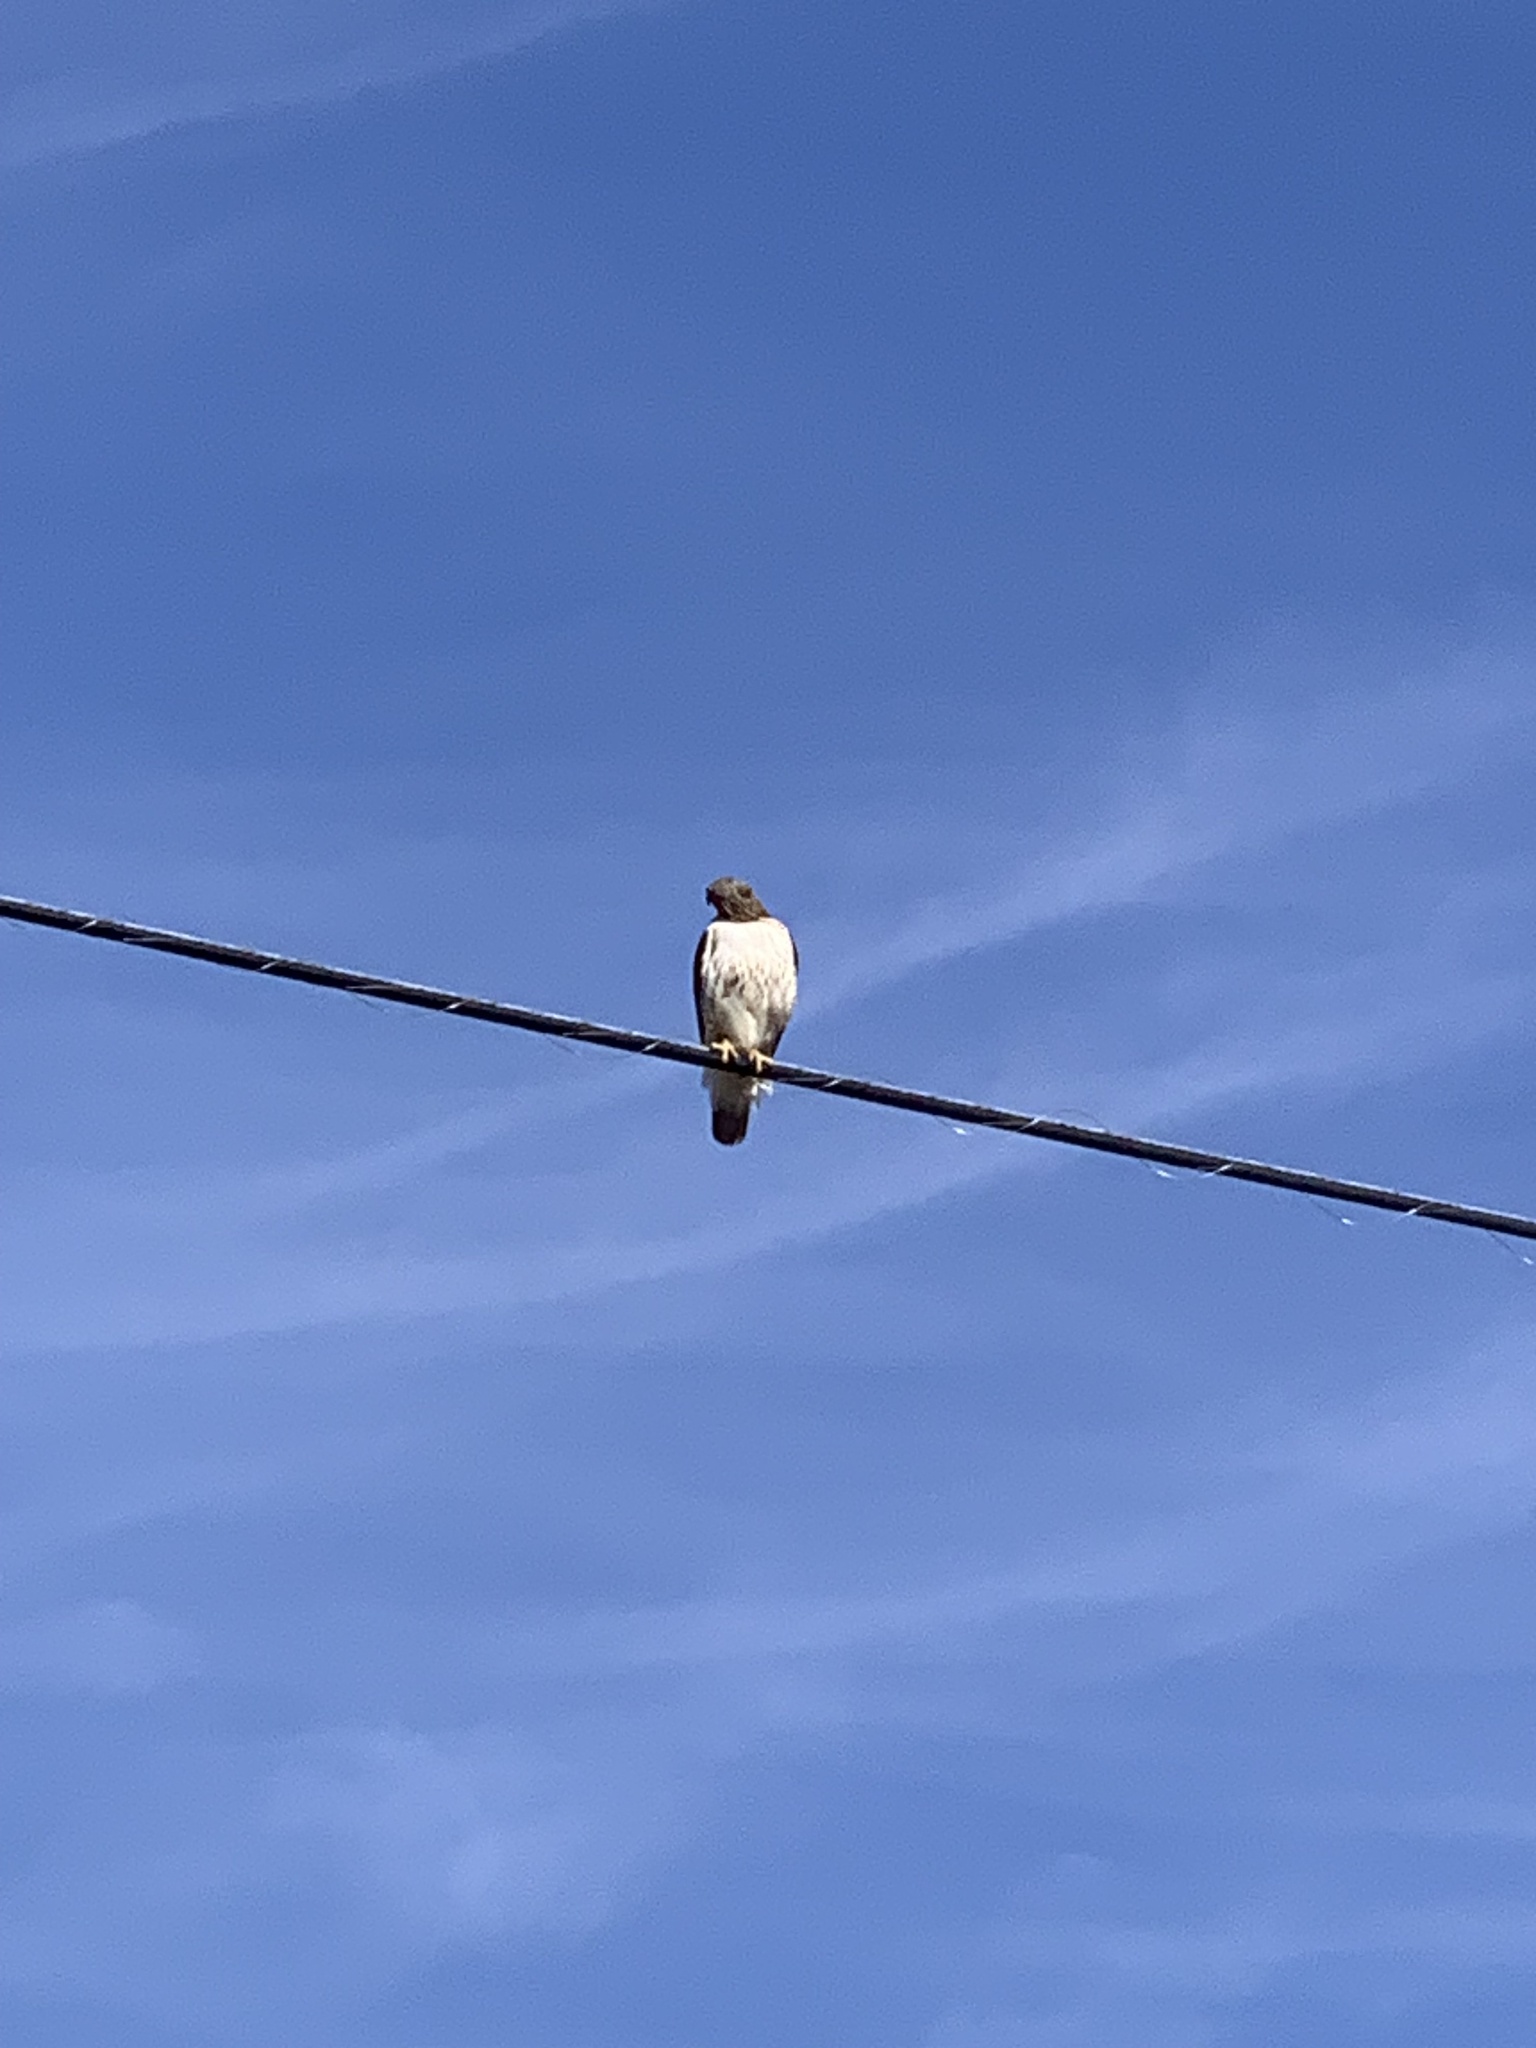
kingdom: Animalia
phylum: Chordata
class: Aves
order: Accipitriformes
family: Accipitridae
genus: Buteo
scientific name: Buteo jamaicensis
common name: Red-tailed hawk
